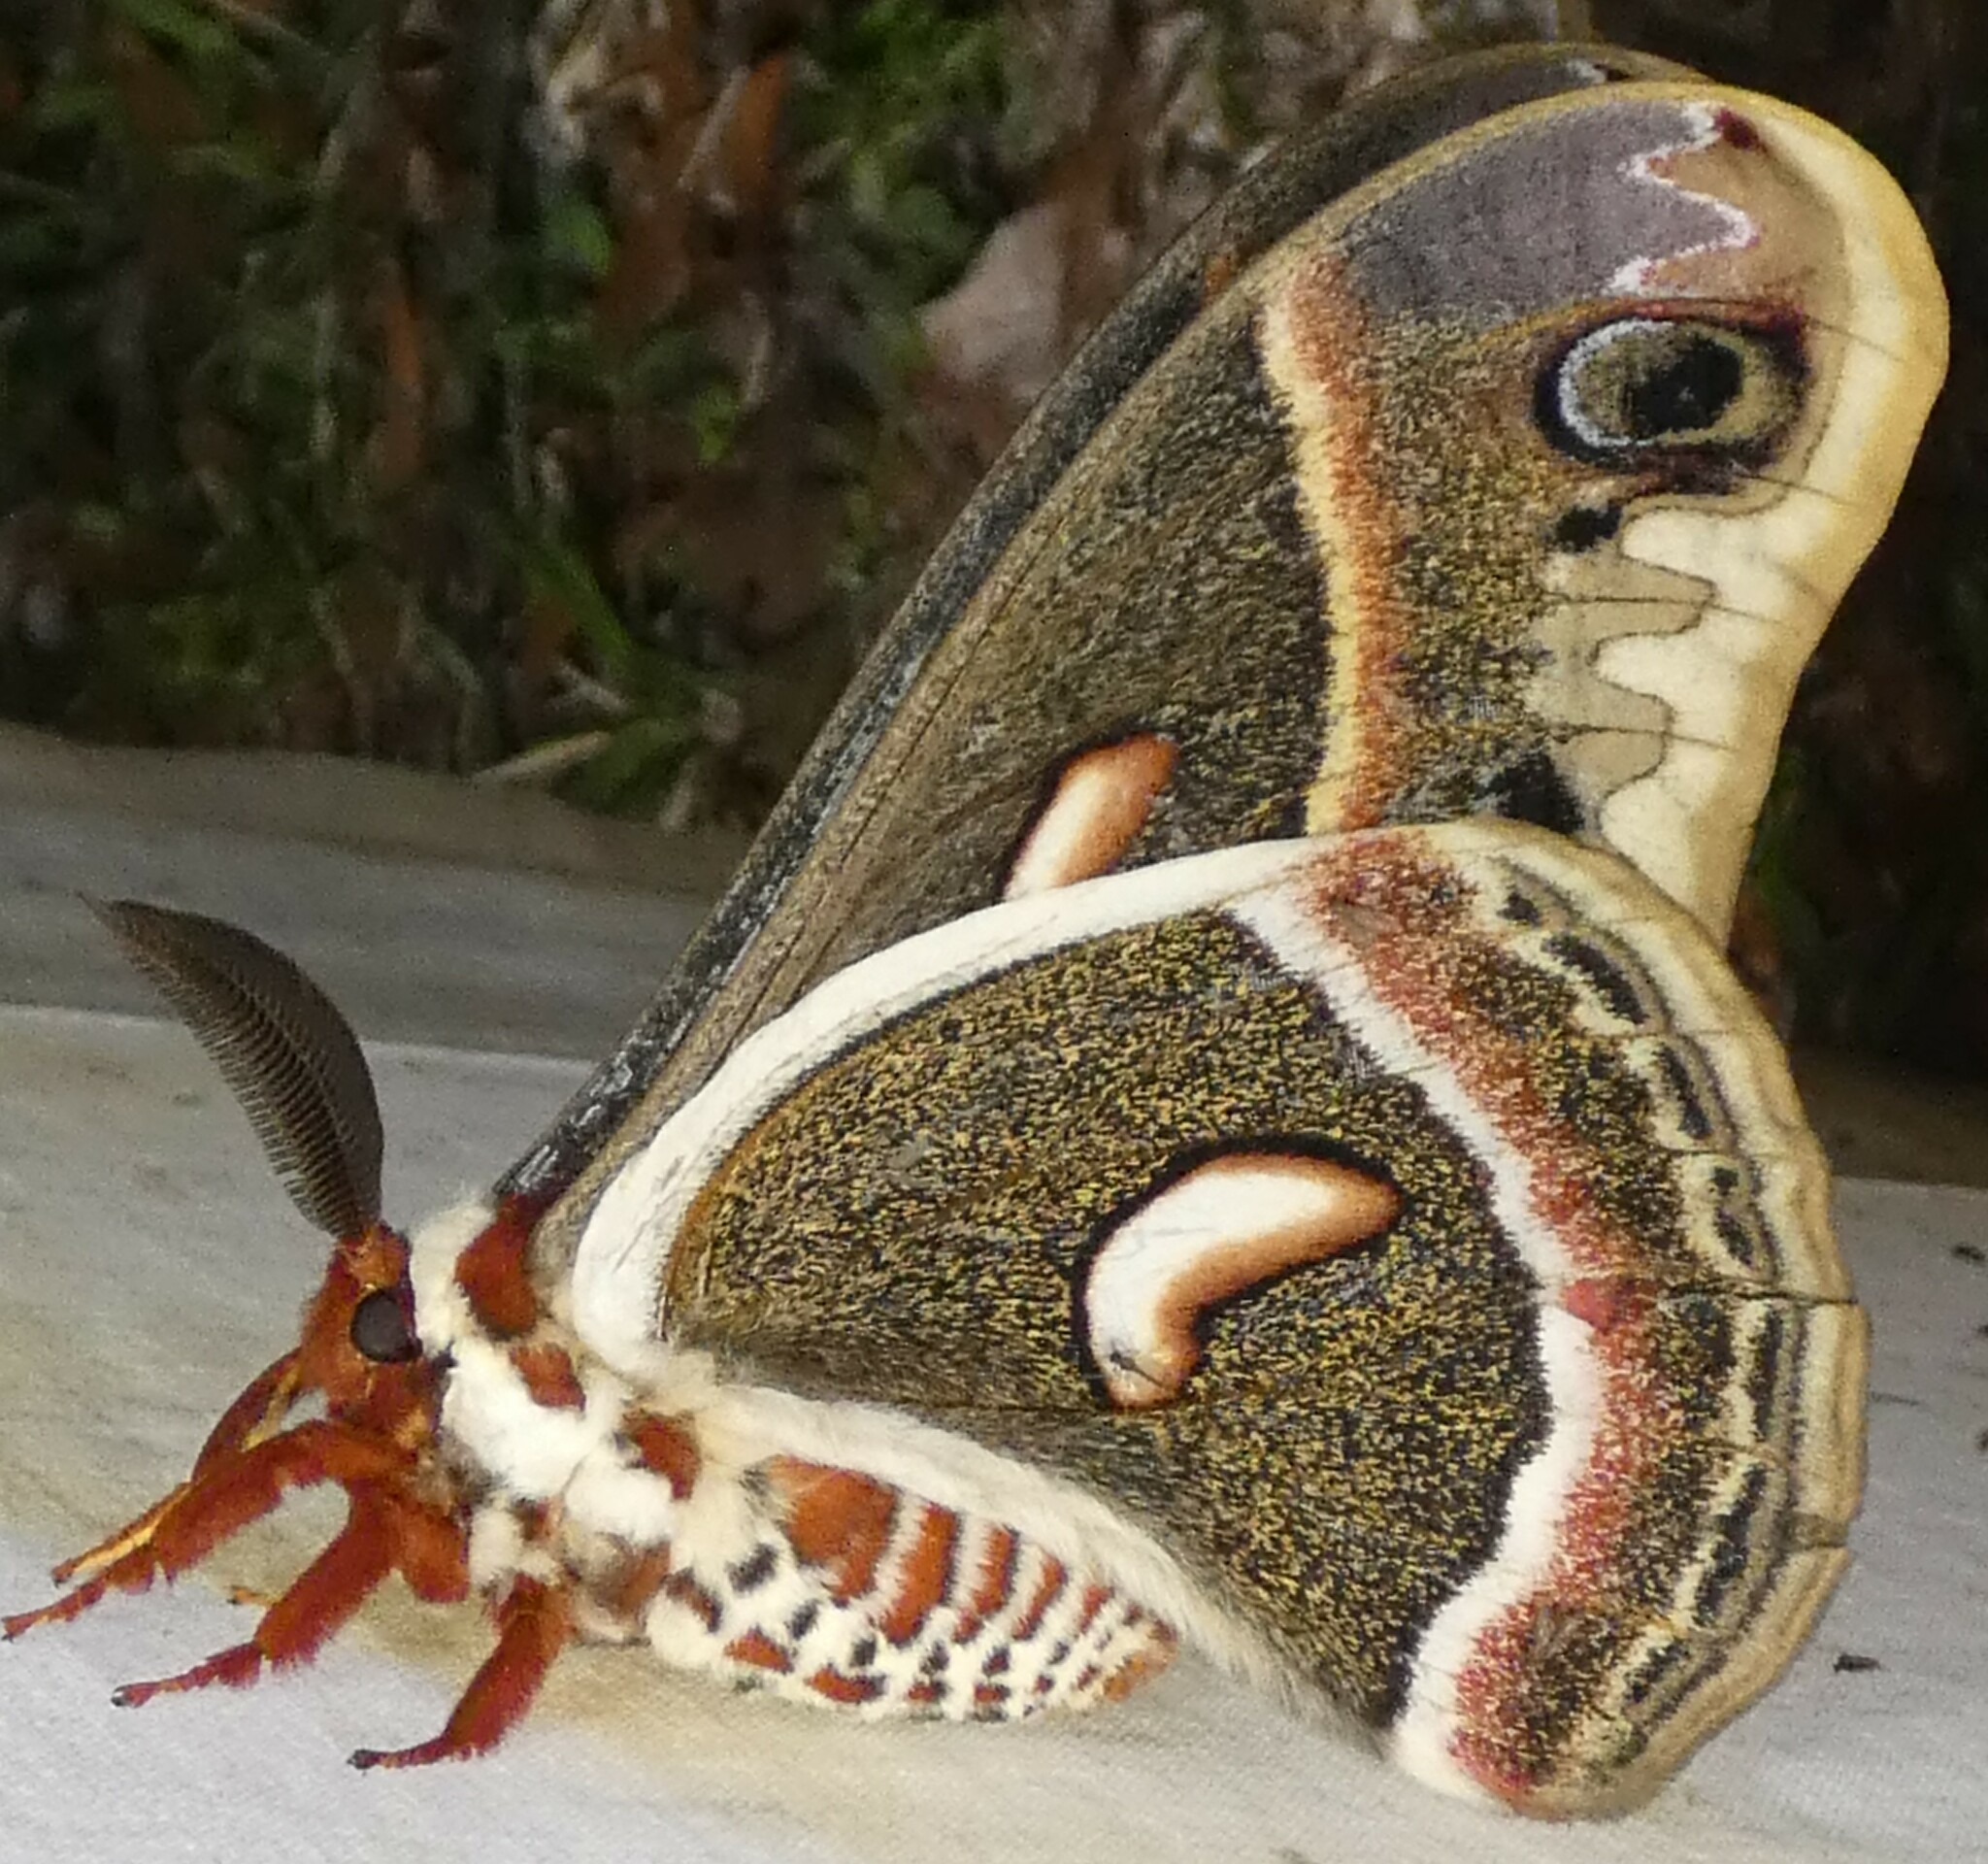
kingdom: Animalia
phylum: Arthropoda
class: Insecta
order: Lepidoptera
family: Saturniidae
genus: Hyalophora
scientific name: Hyalophora cecropia
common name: Cecropia silkmoth
